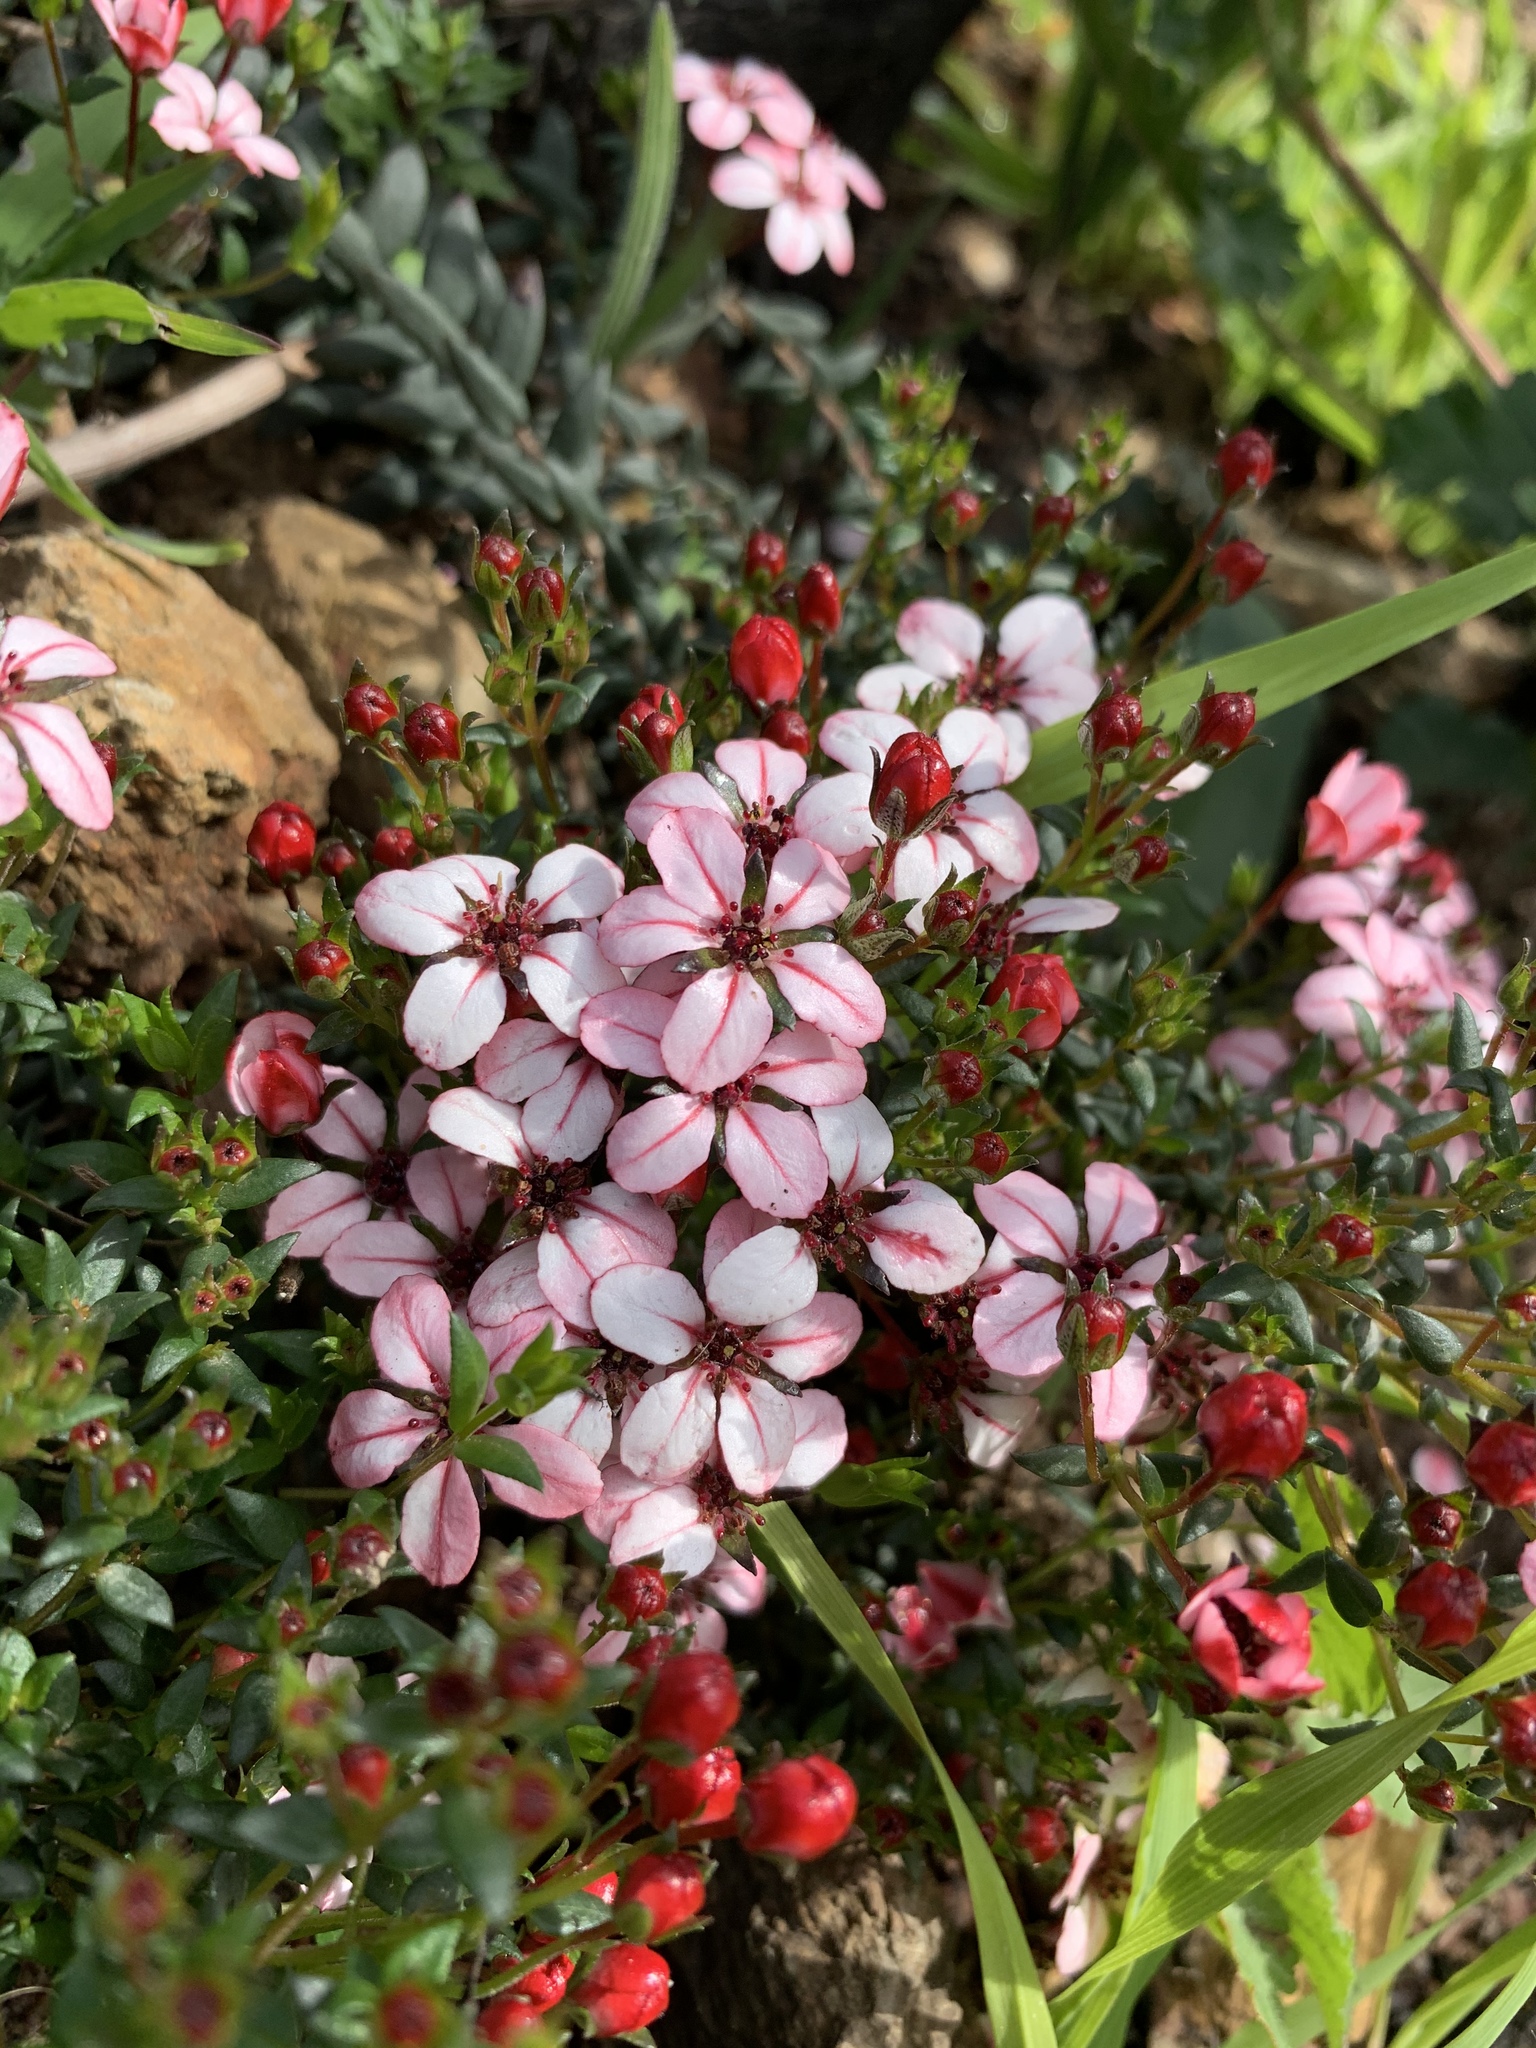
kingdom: Plantae
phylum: Tracheophyta
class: Magnoliopsida
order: Sapindales
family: Rutaceae
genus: Adenandra
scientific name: Adenandra marginata
